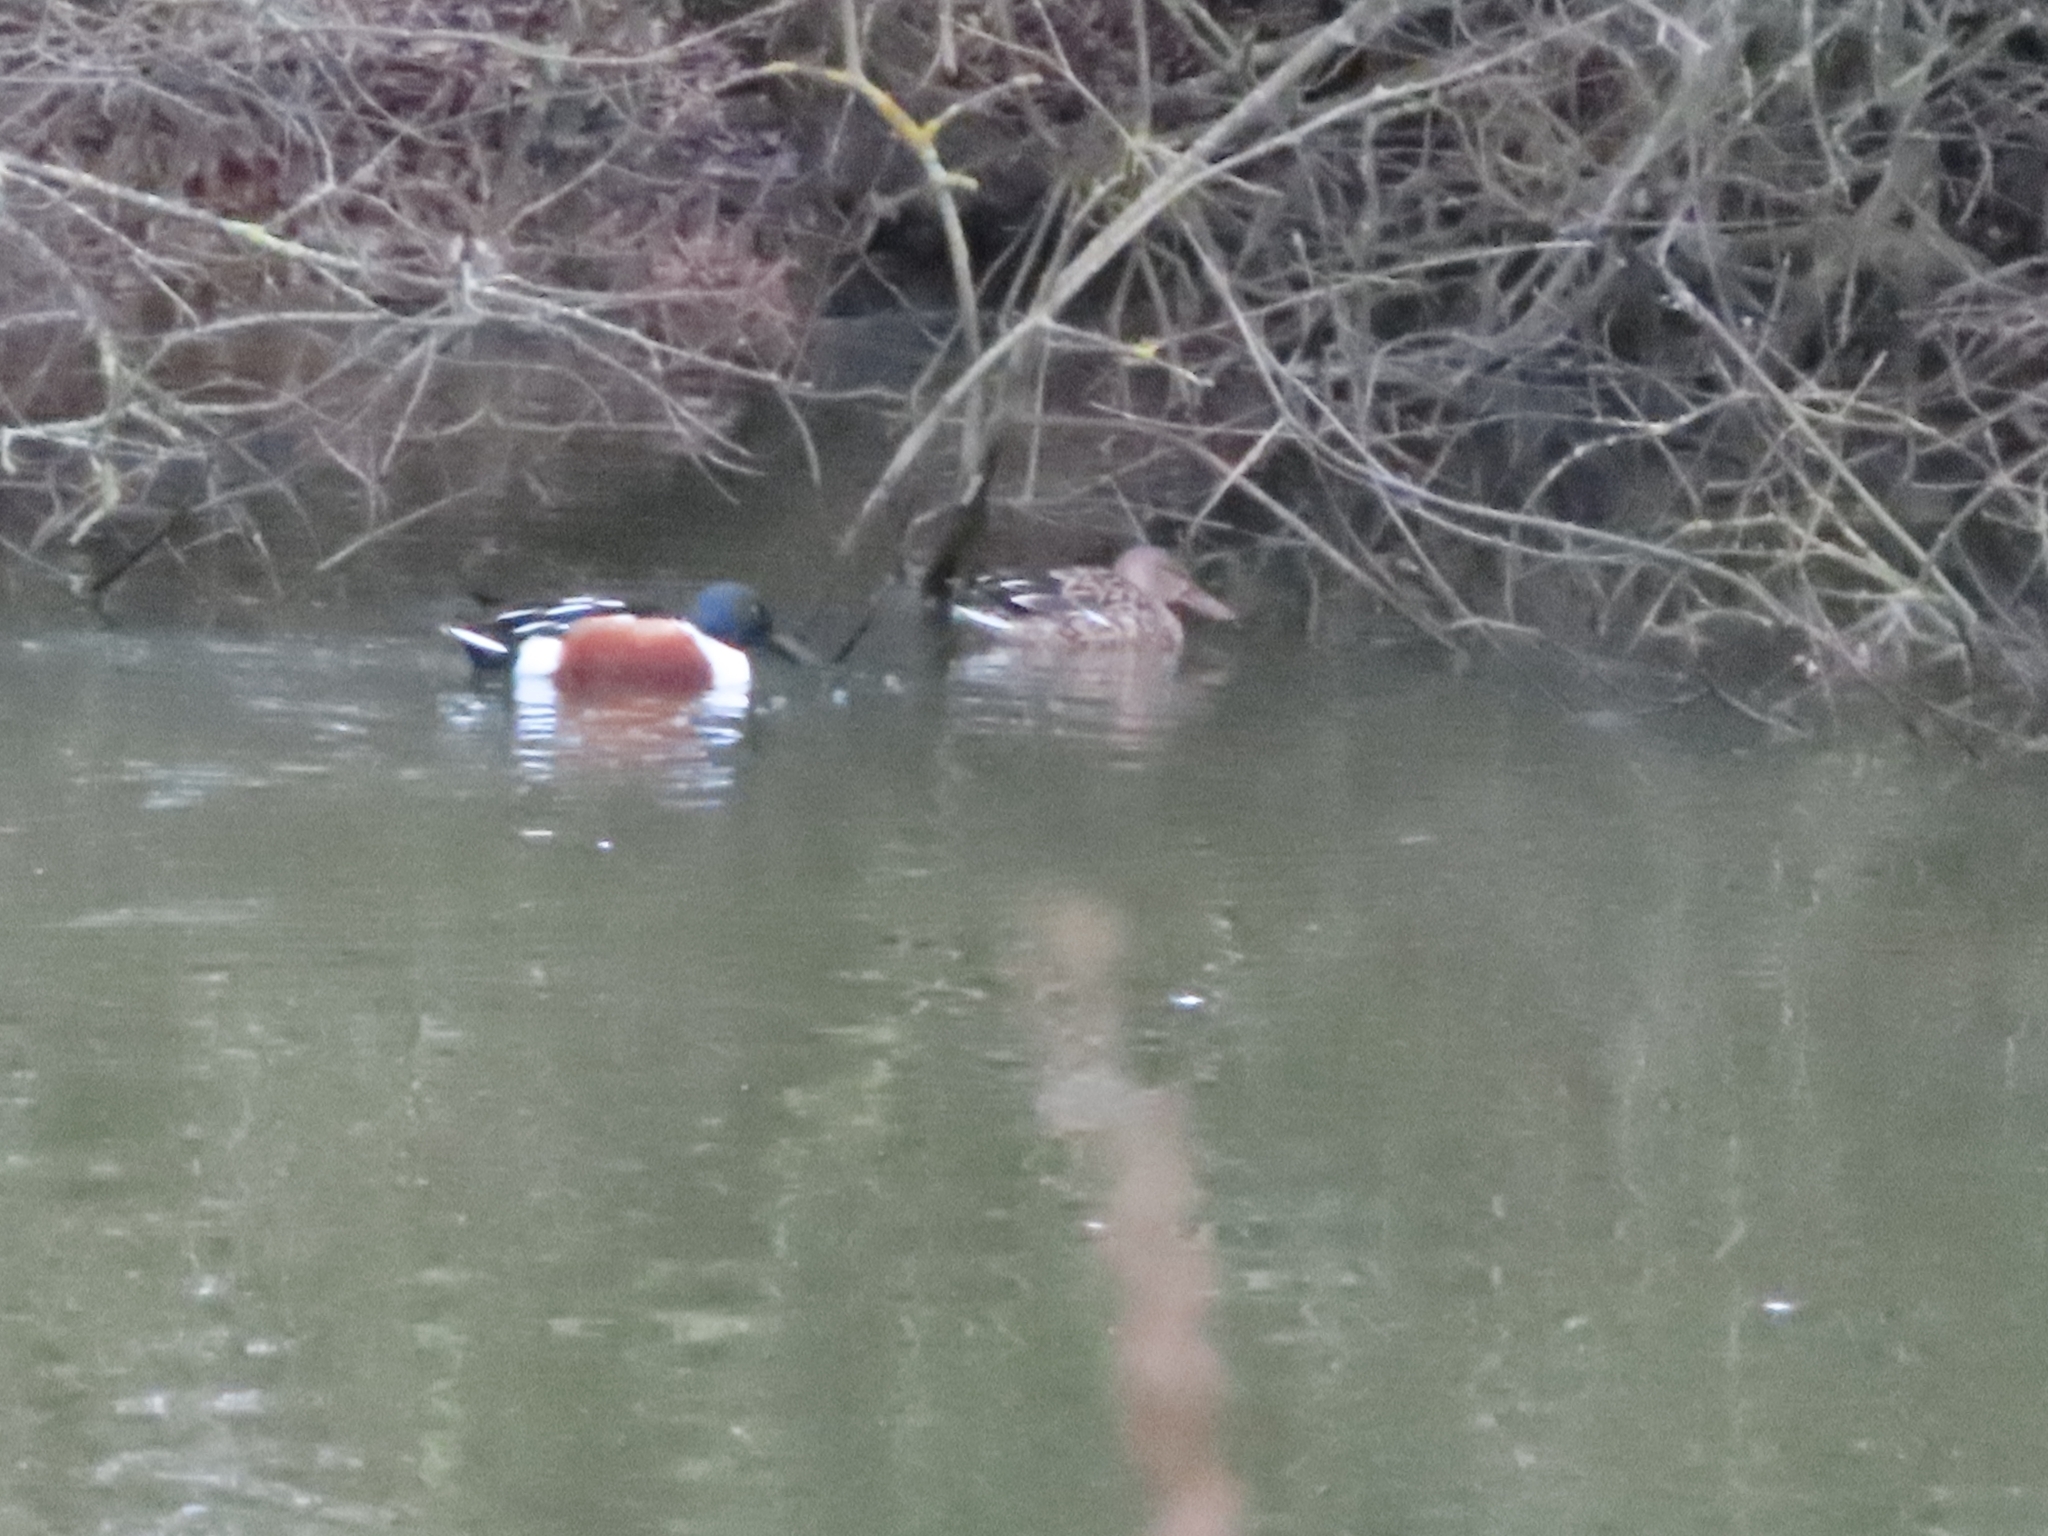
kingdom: Animalia
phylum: Chordata
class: Aves
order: Anseriformes
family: Anatidae
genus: Spatula
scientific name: Spatula clypeata
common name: Northern shoveler
